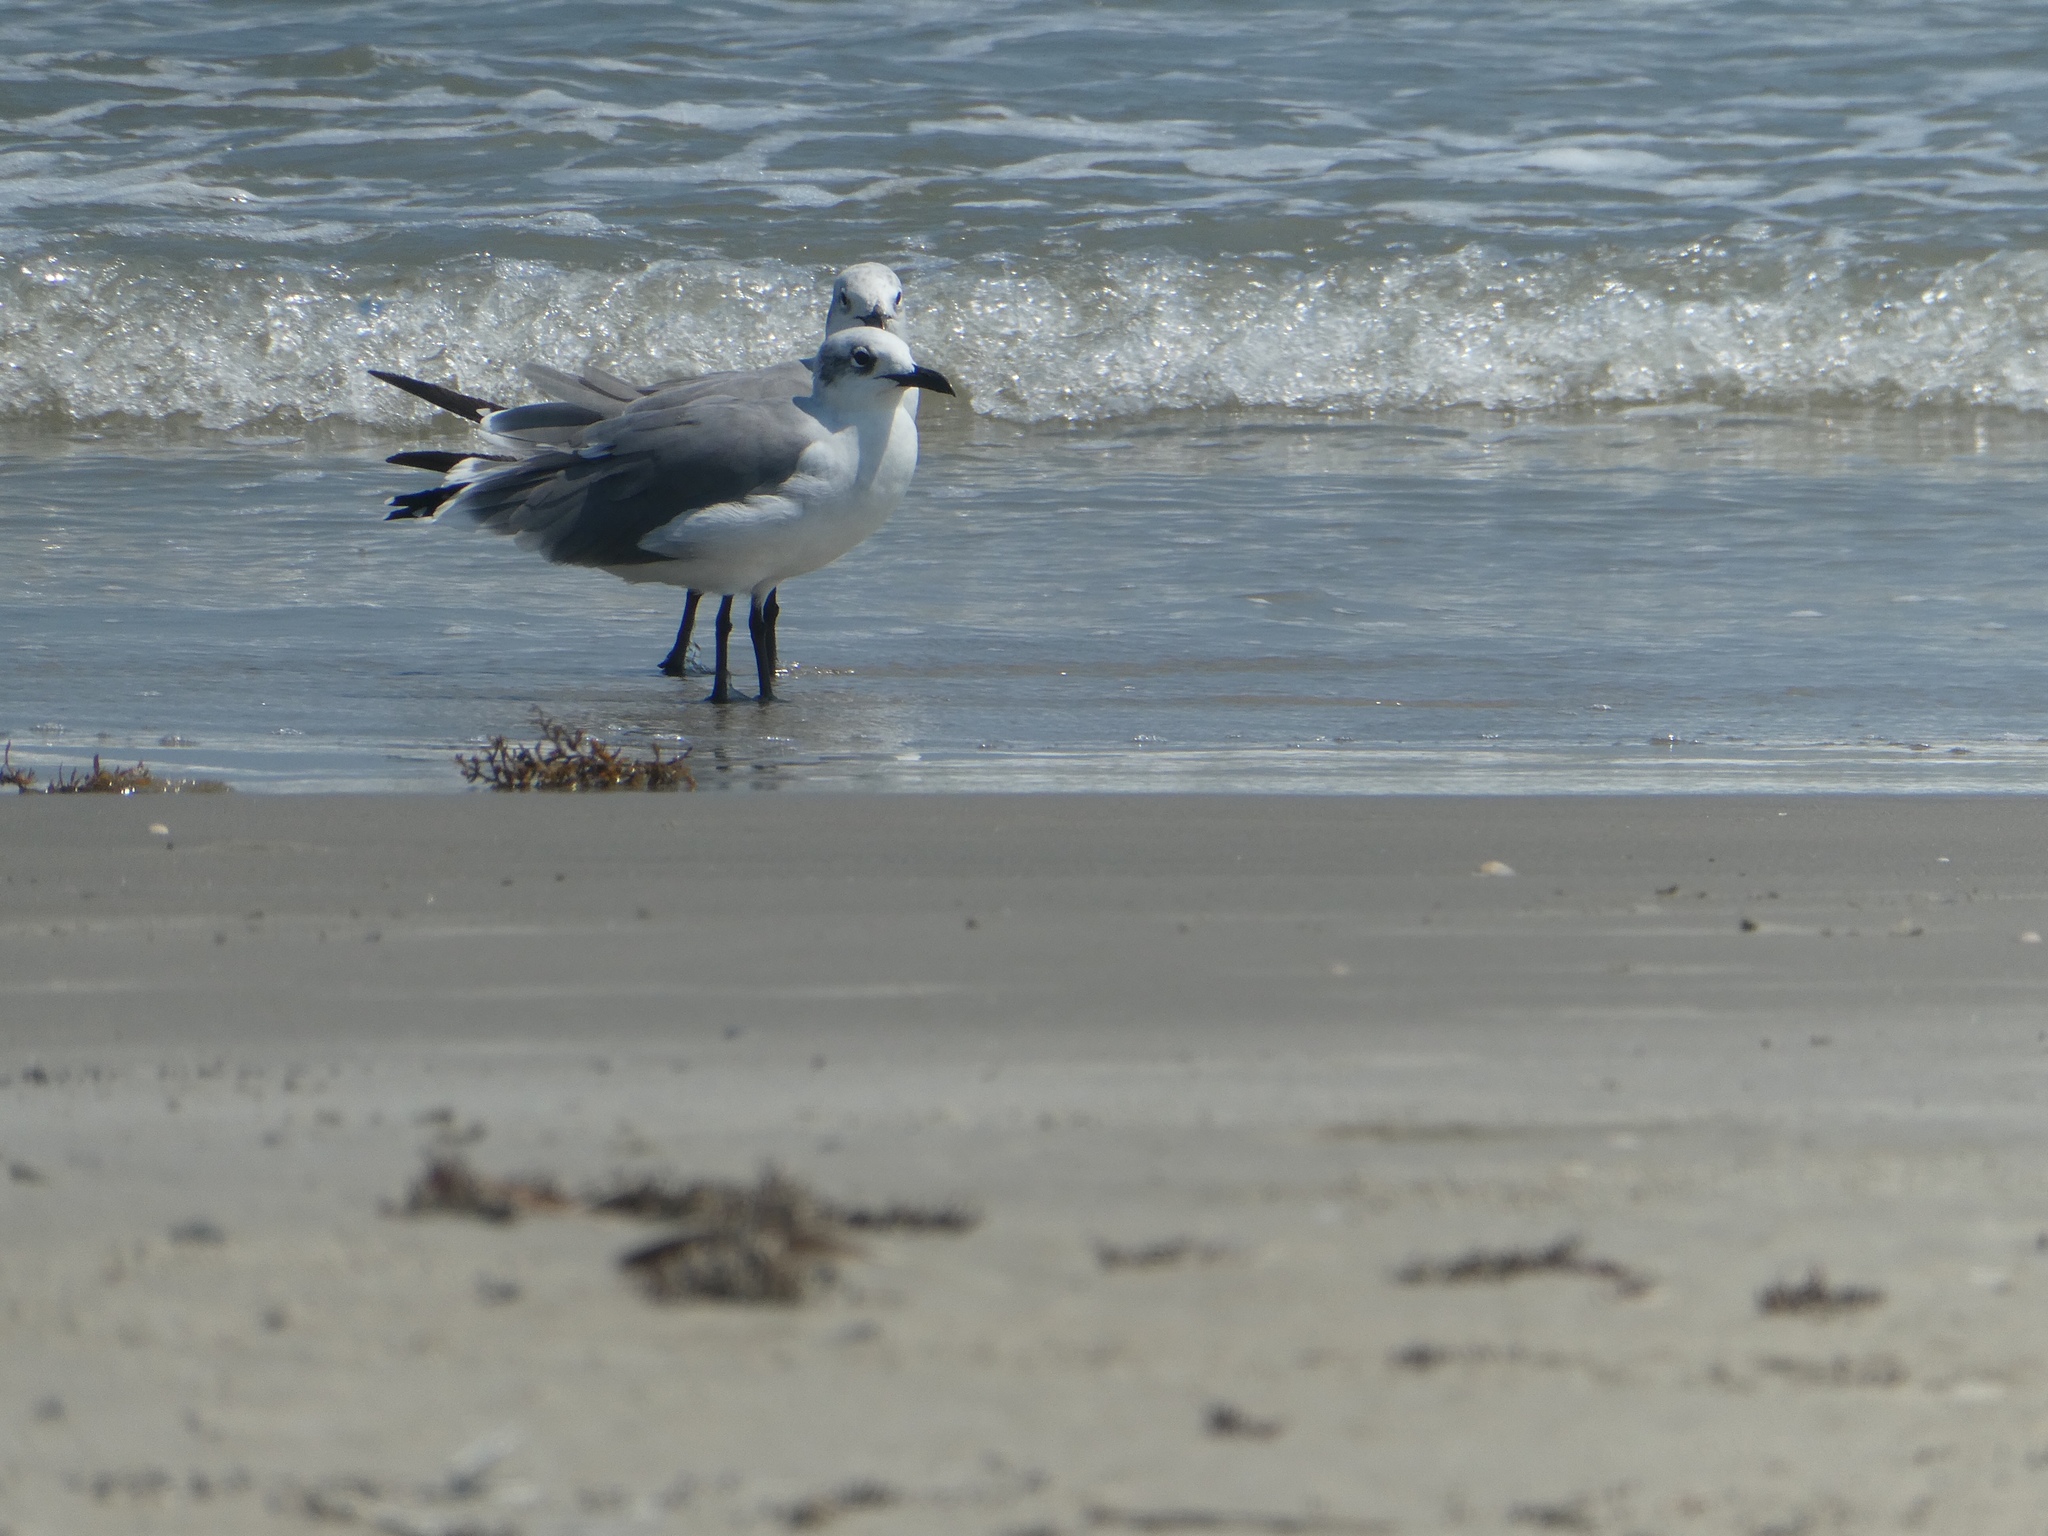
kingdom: Animalia
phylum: Chordata
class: Aves
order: Charadriiformes
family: Laridae
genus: Leucophaeus
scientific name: Leucophaeus atricilla
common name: Laughing gull
